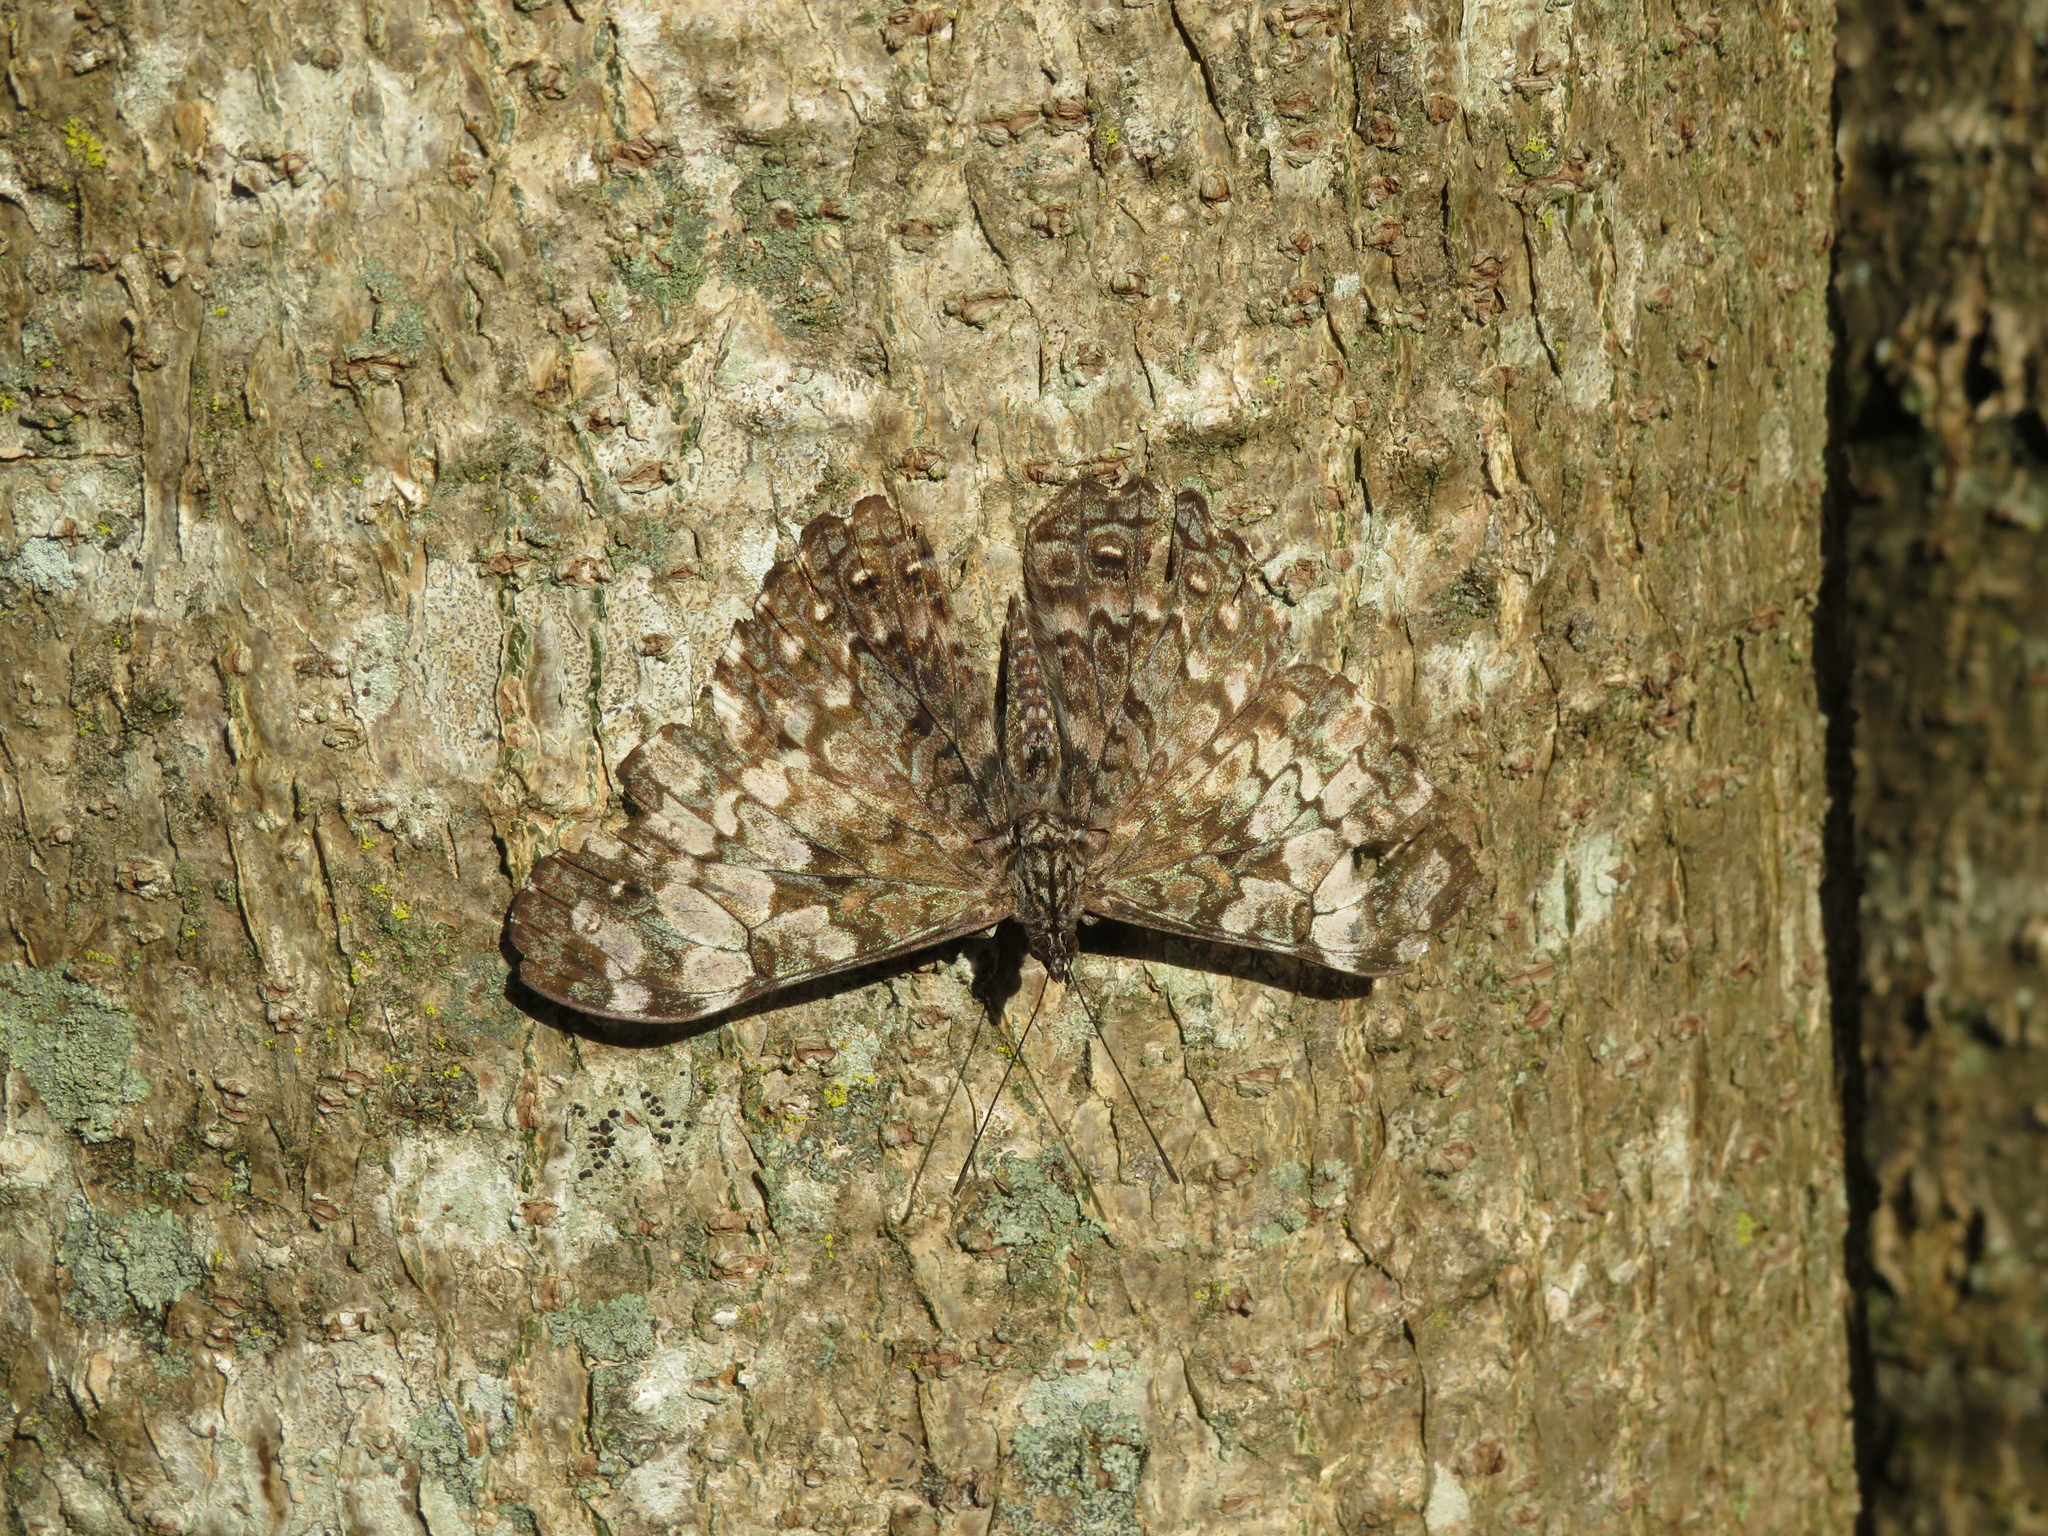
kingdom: Animalia
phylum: Arthropoda
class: Insecta
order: Lepidoptera
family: Nymphalidae
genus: Hamadryas
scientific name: Hamadryas epinome
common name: Epinome cracker
